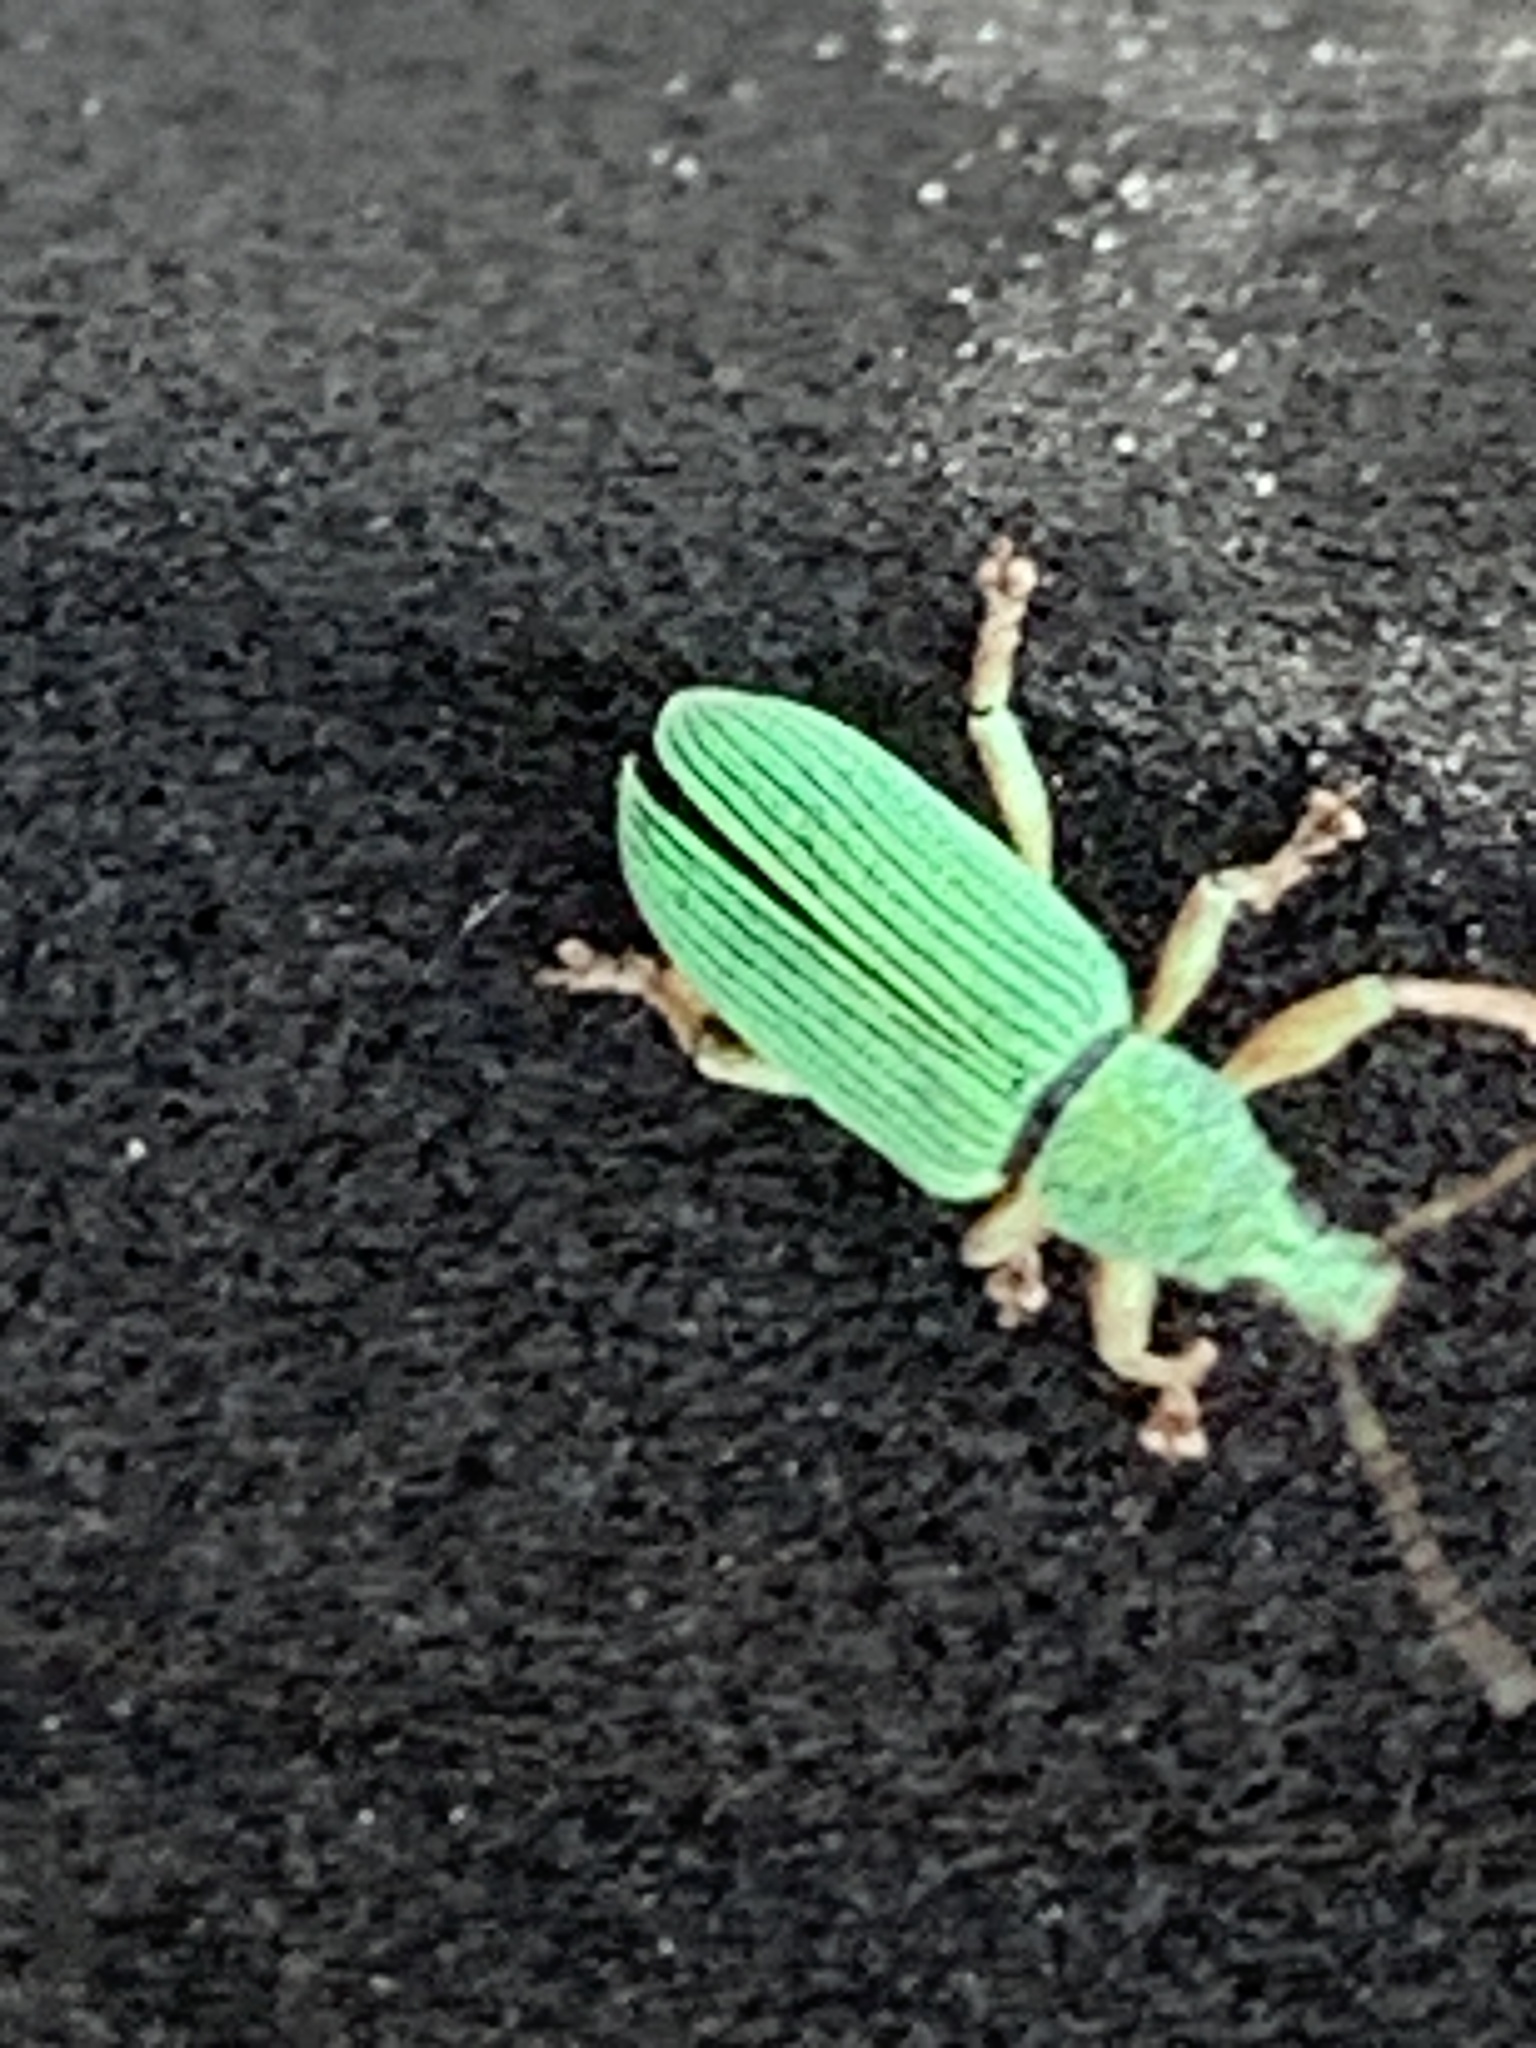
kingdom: Animalia
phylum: Arthropoda
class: Insecta
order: Coleoptera
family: Curculionidae
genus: Polydrusus
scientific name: Polydrusus formosus
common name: Weevil
